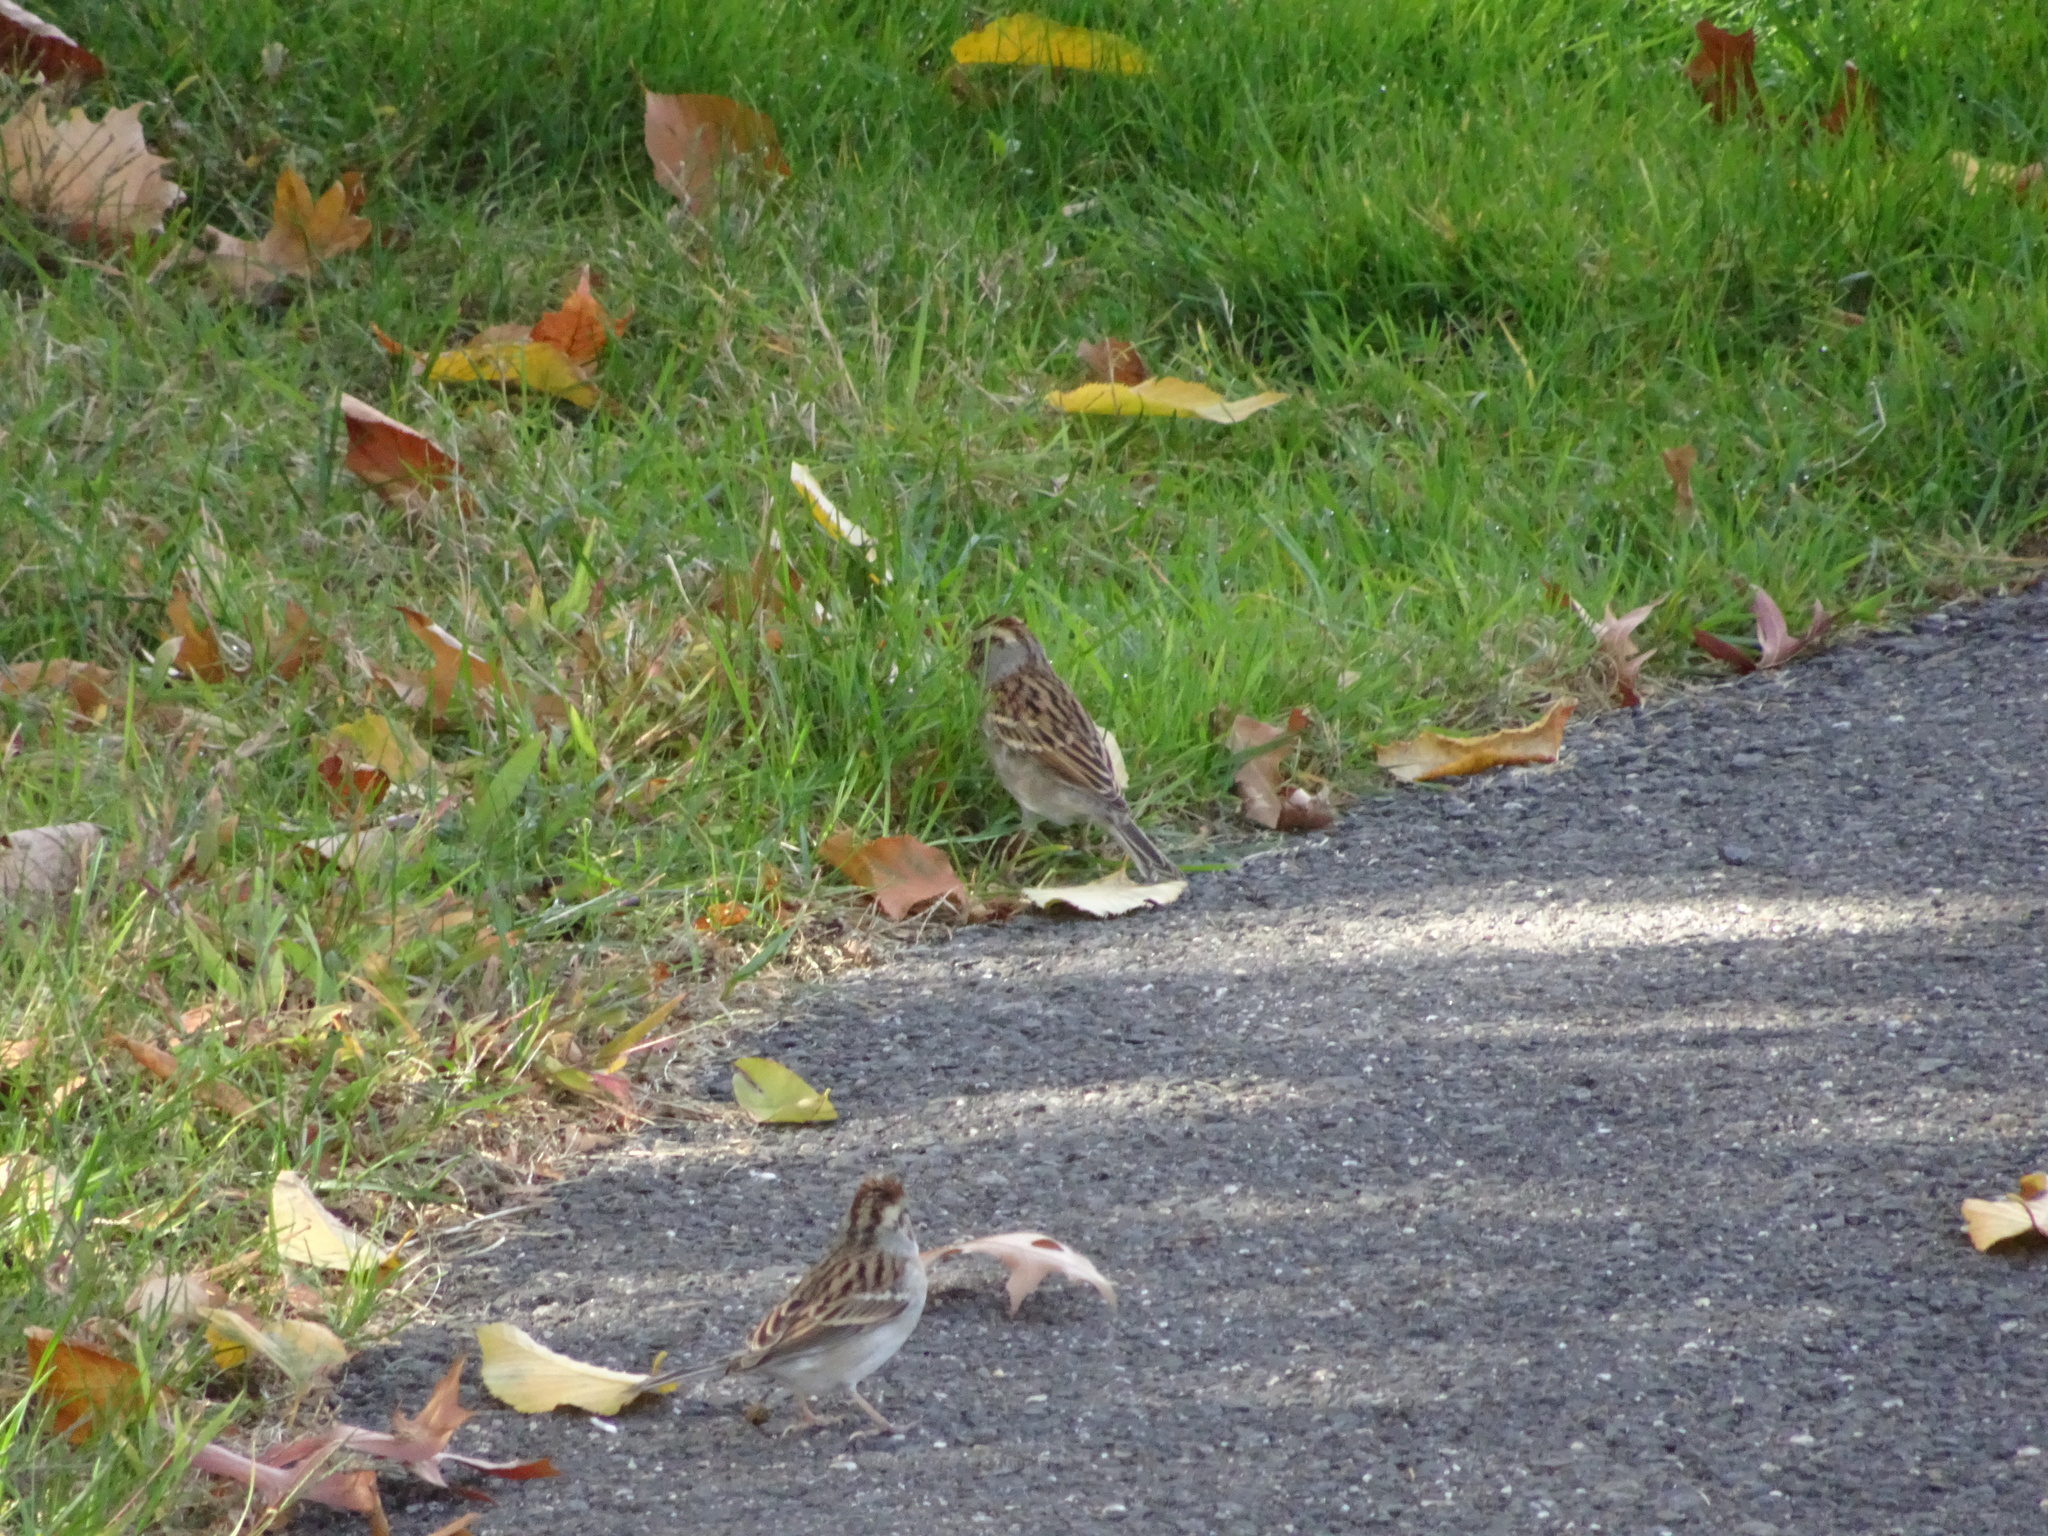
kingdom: Animalia
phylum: Chordata
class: Aves
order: Passeriformes
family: Passerellidae
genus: Spizella
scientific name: Spizella passerina
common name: Chipping sparrow
